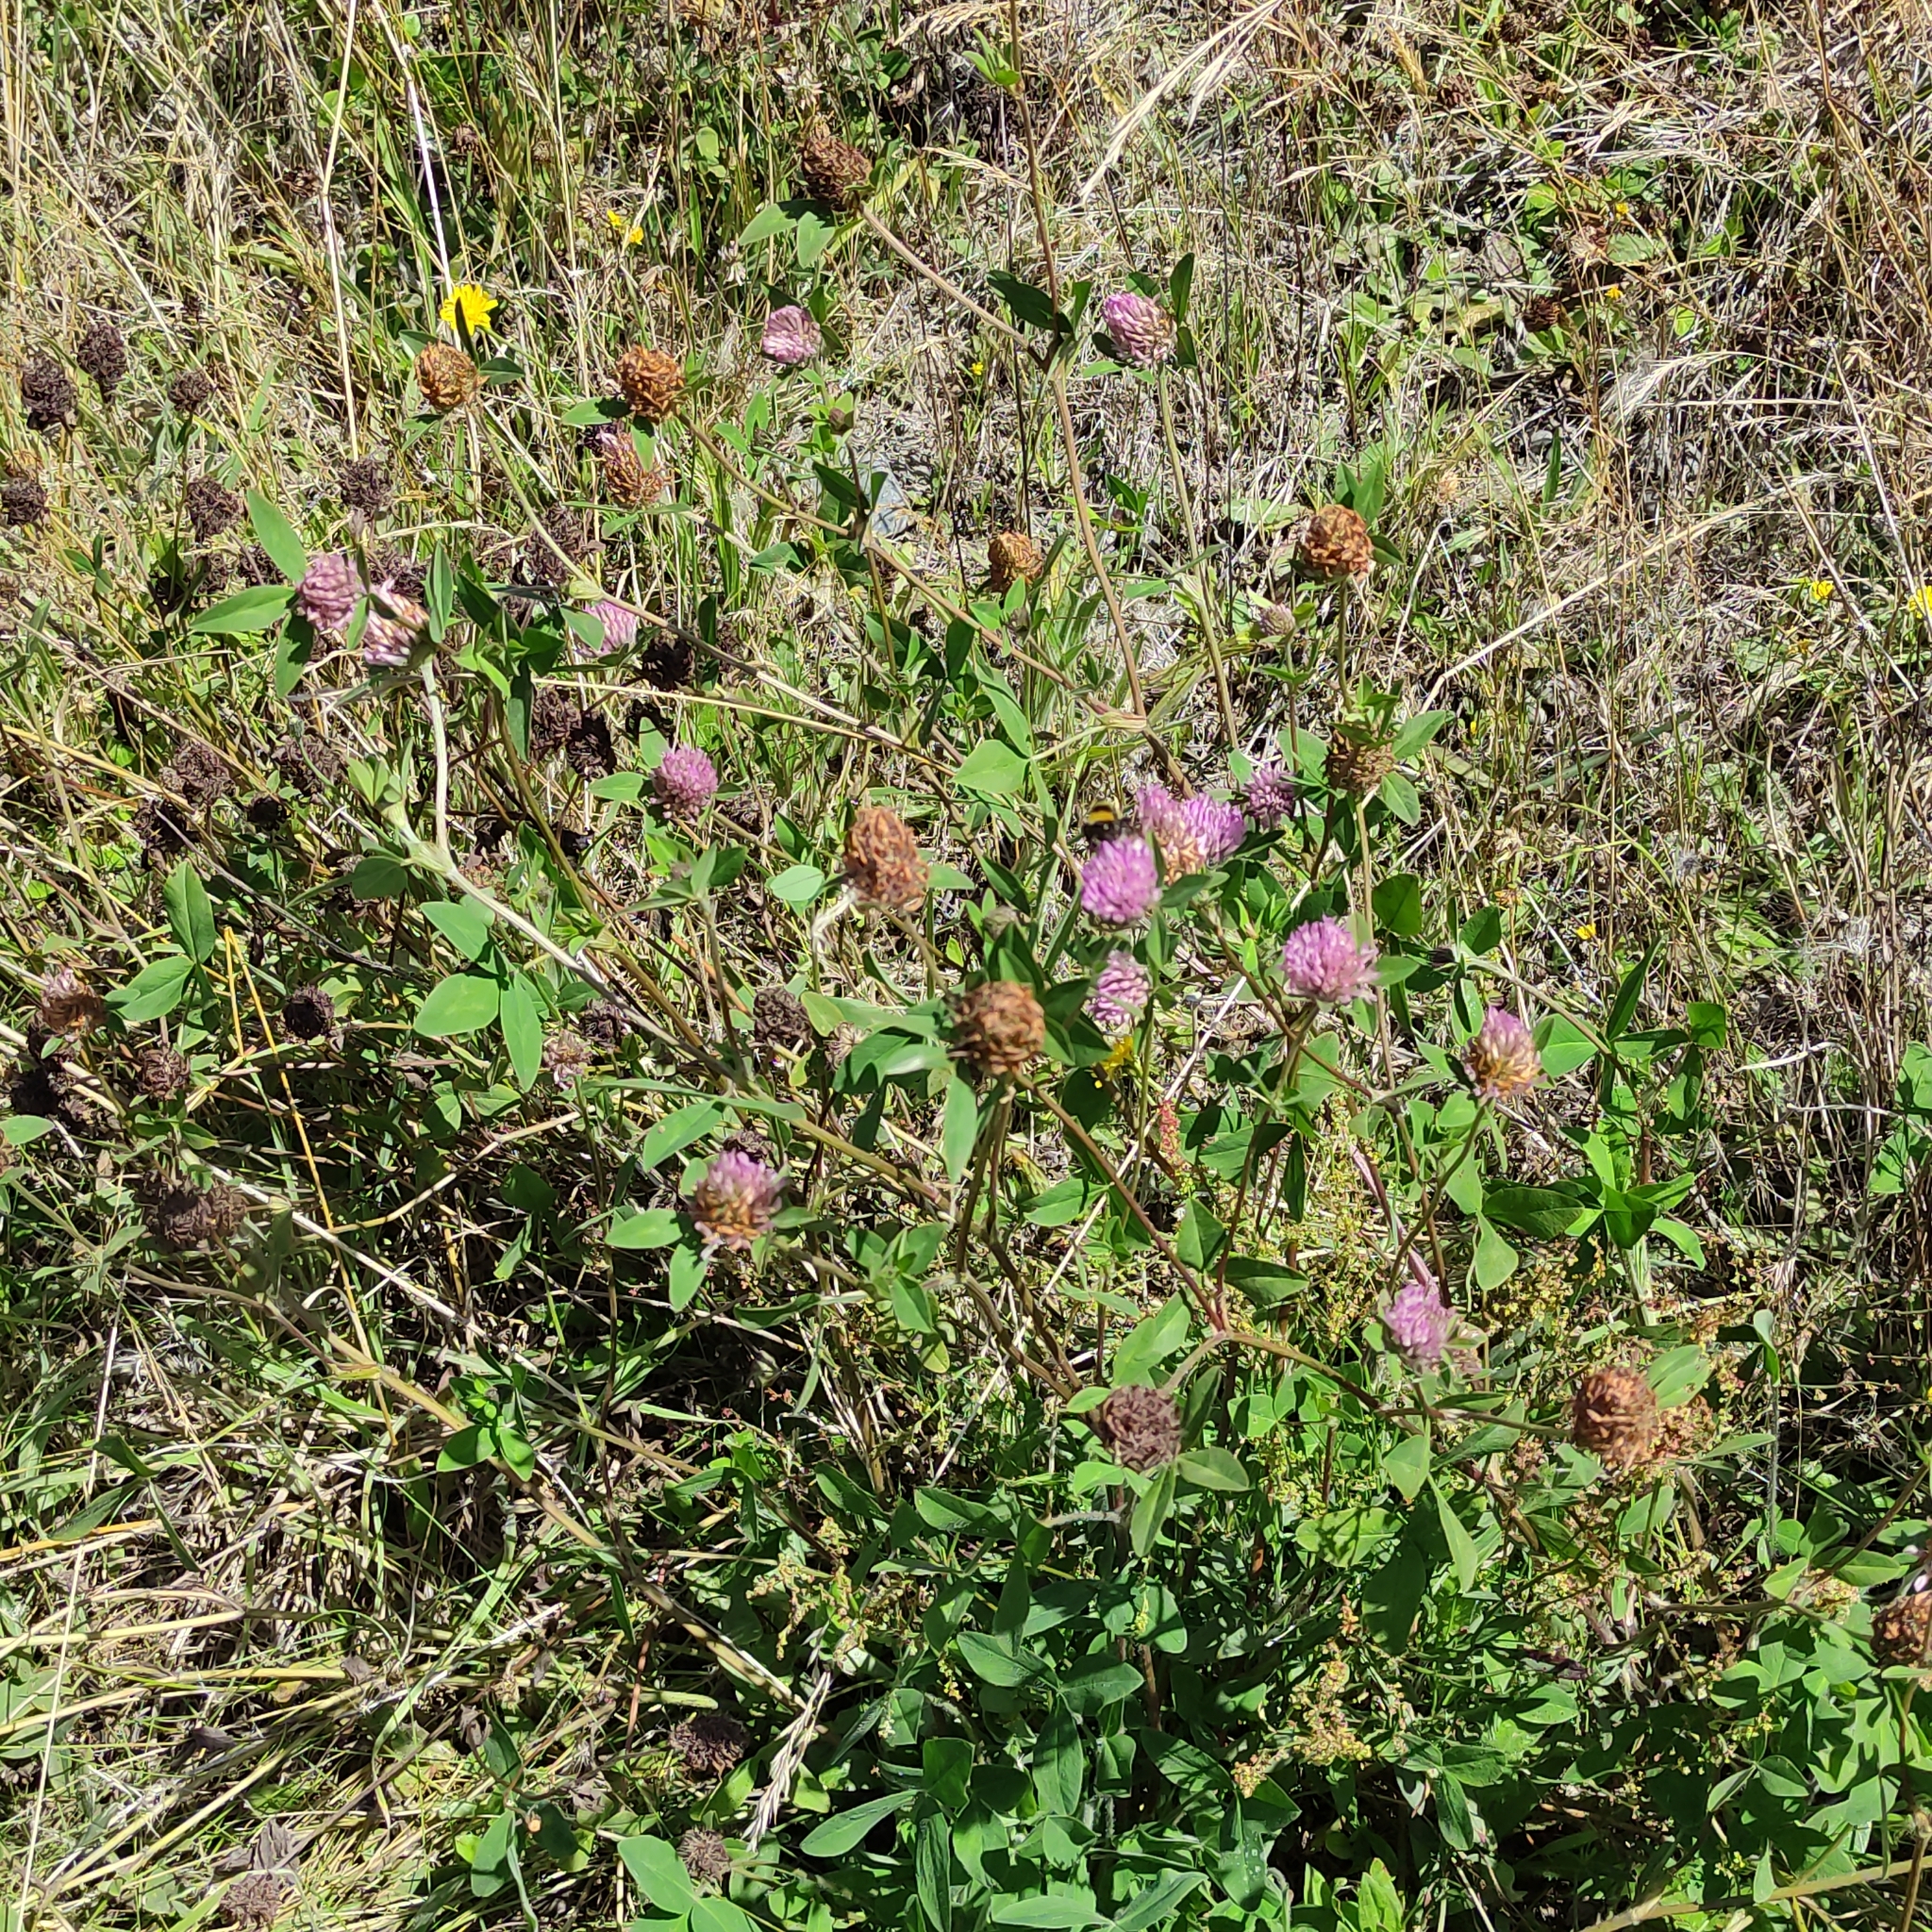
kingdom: Plantae
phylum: Tracheophyta
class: Magnoliopsida
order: Fabales
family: Fabaceae
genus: Trifolium
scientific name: Trifolium pratense
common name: Red clover
